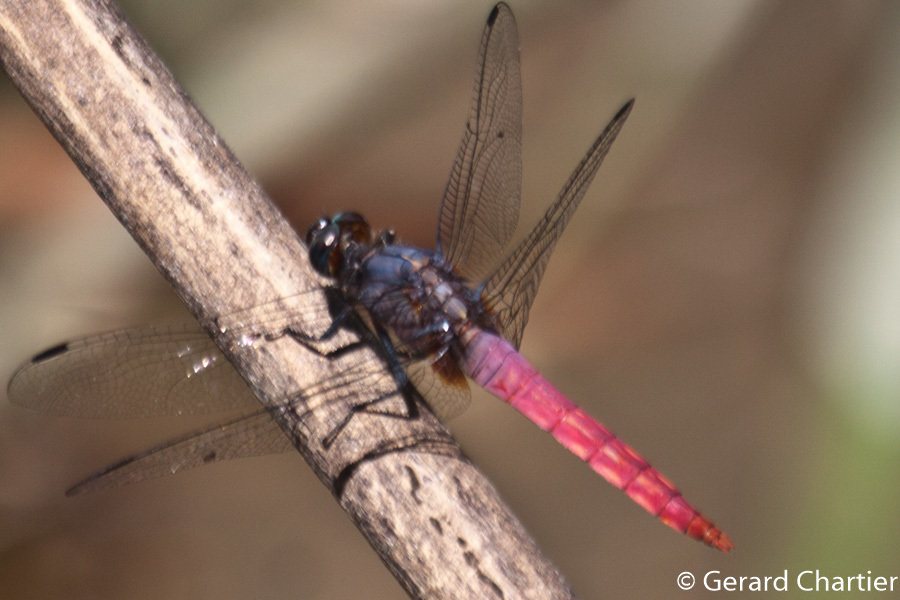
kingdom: Animalia
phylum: Arthropoda
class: Insecta
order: Odonata
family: Libellulidae
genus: Orthetrum
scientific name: Orthetrum pruinosum
